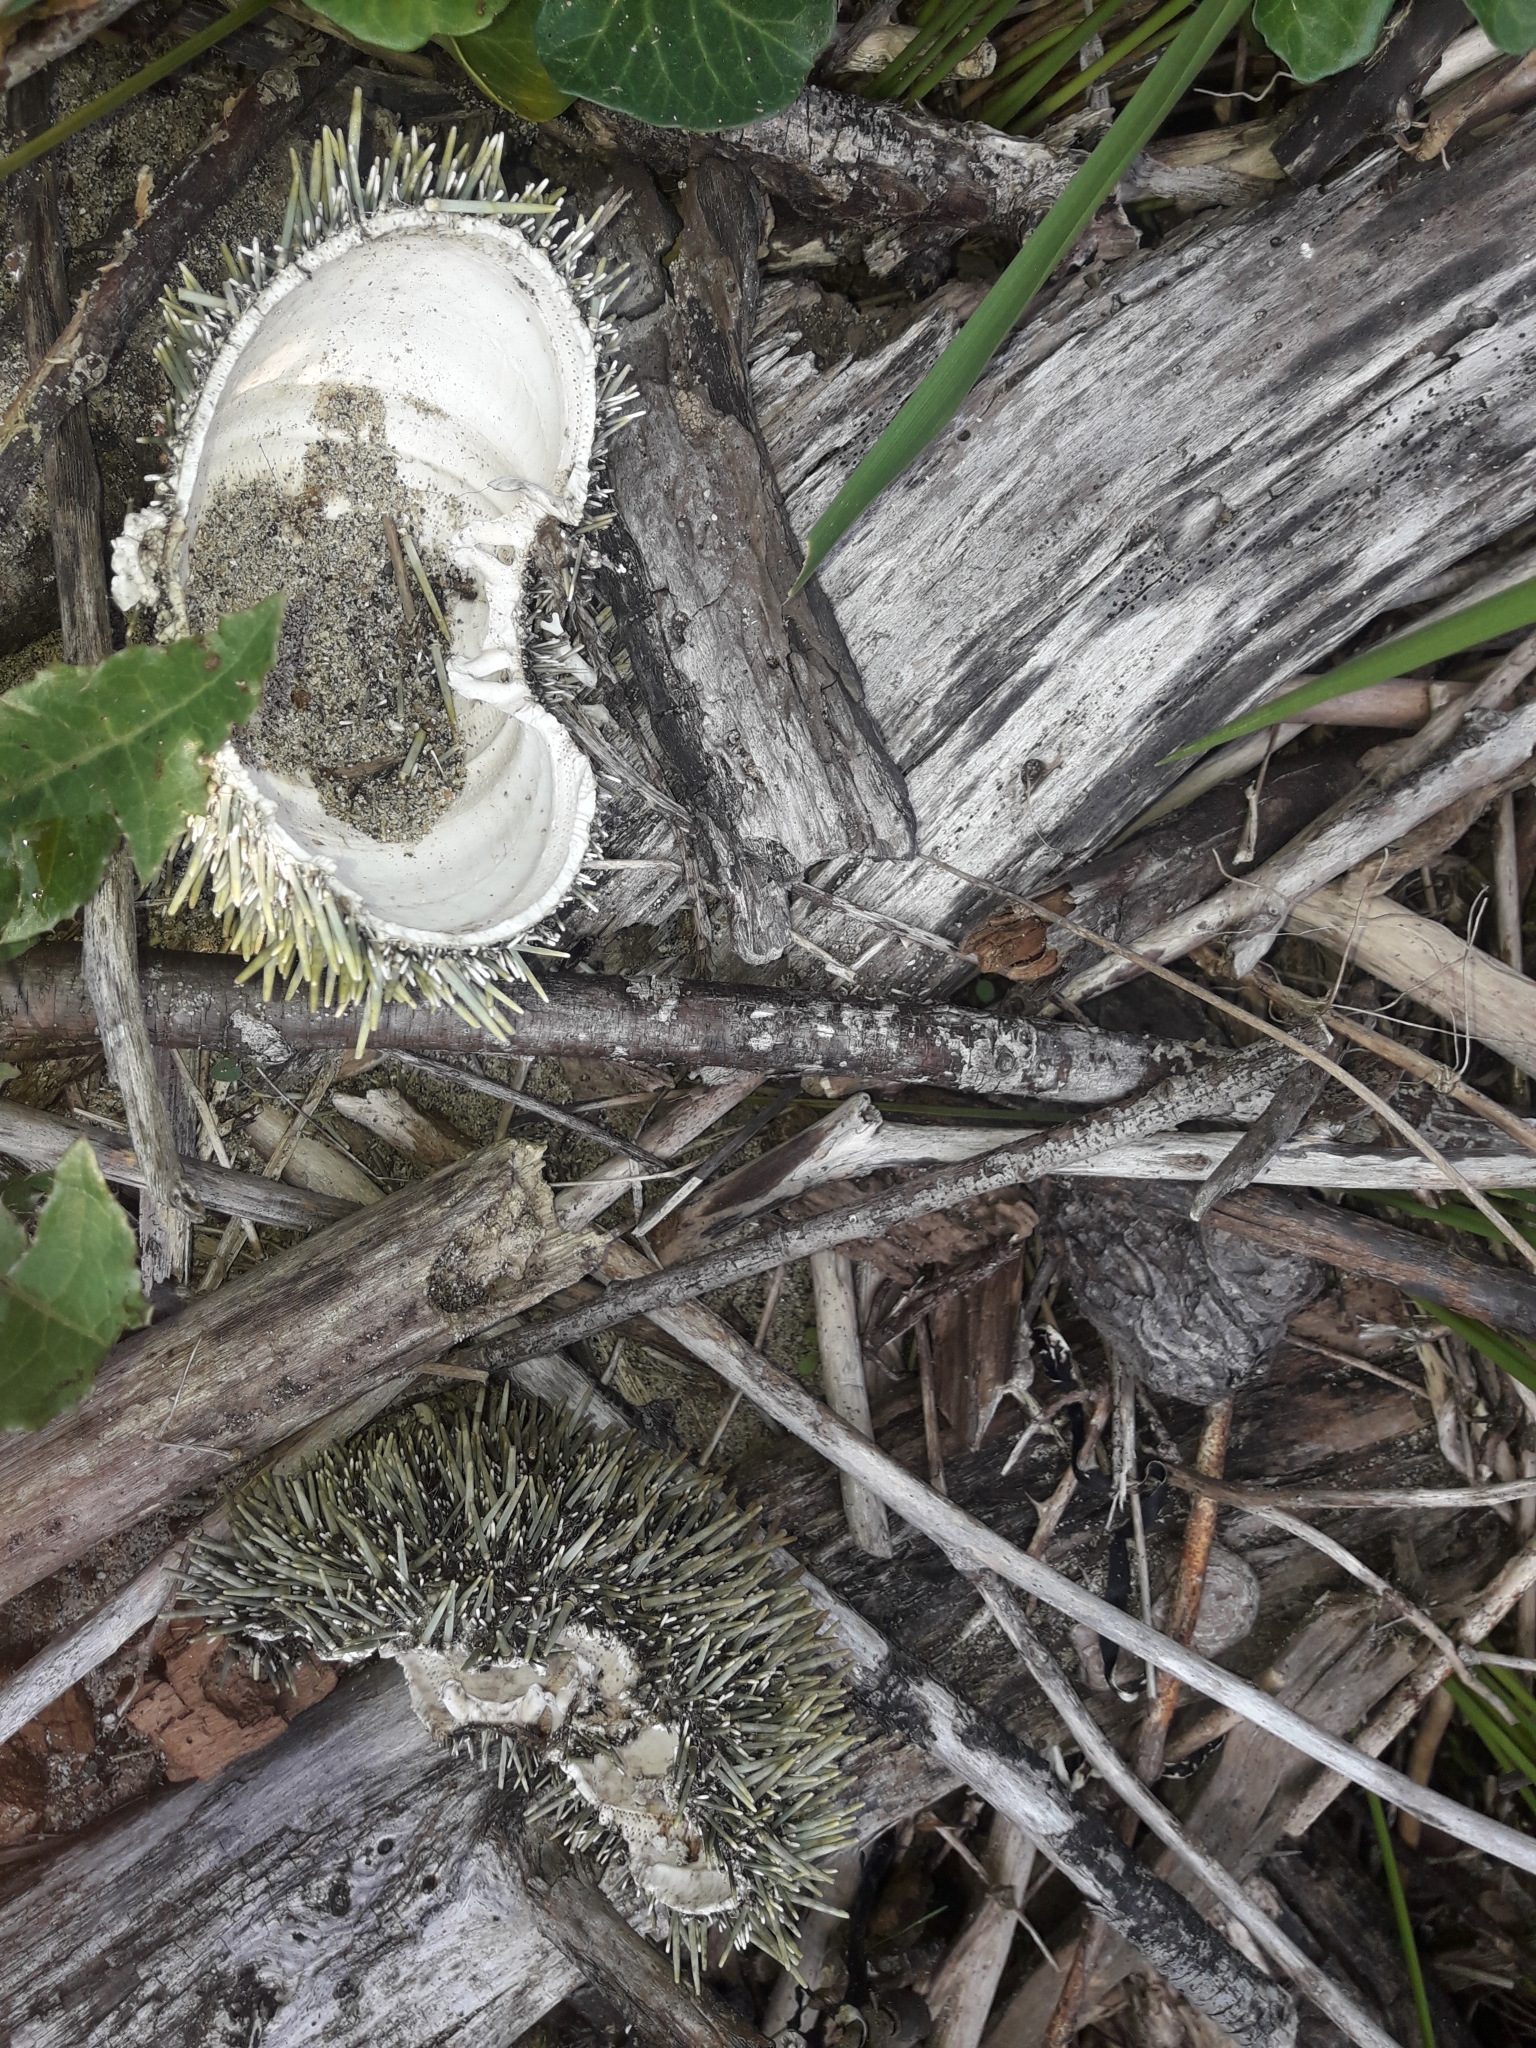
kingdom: Animalia
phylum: Echinodermata
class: Echinoidea
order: Camarodonta
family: Echinometridae
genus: Evechinus
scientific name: Evechinus chloroticus
